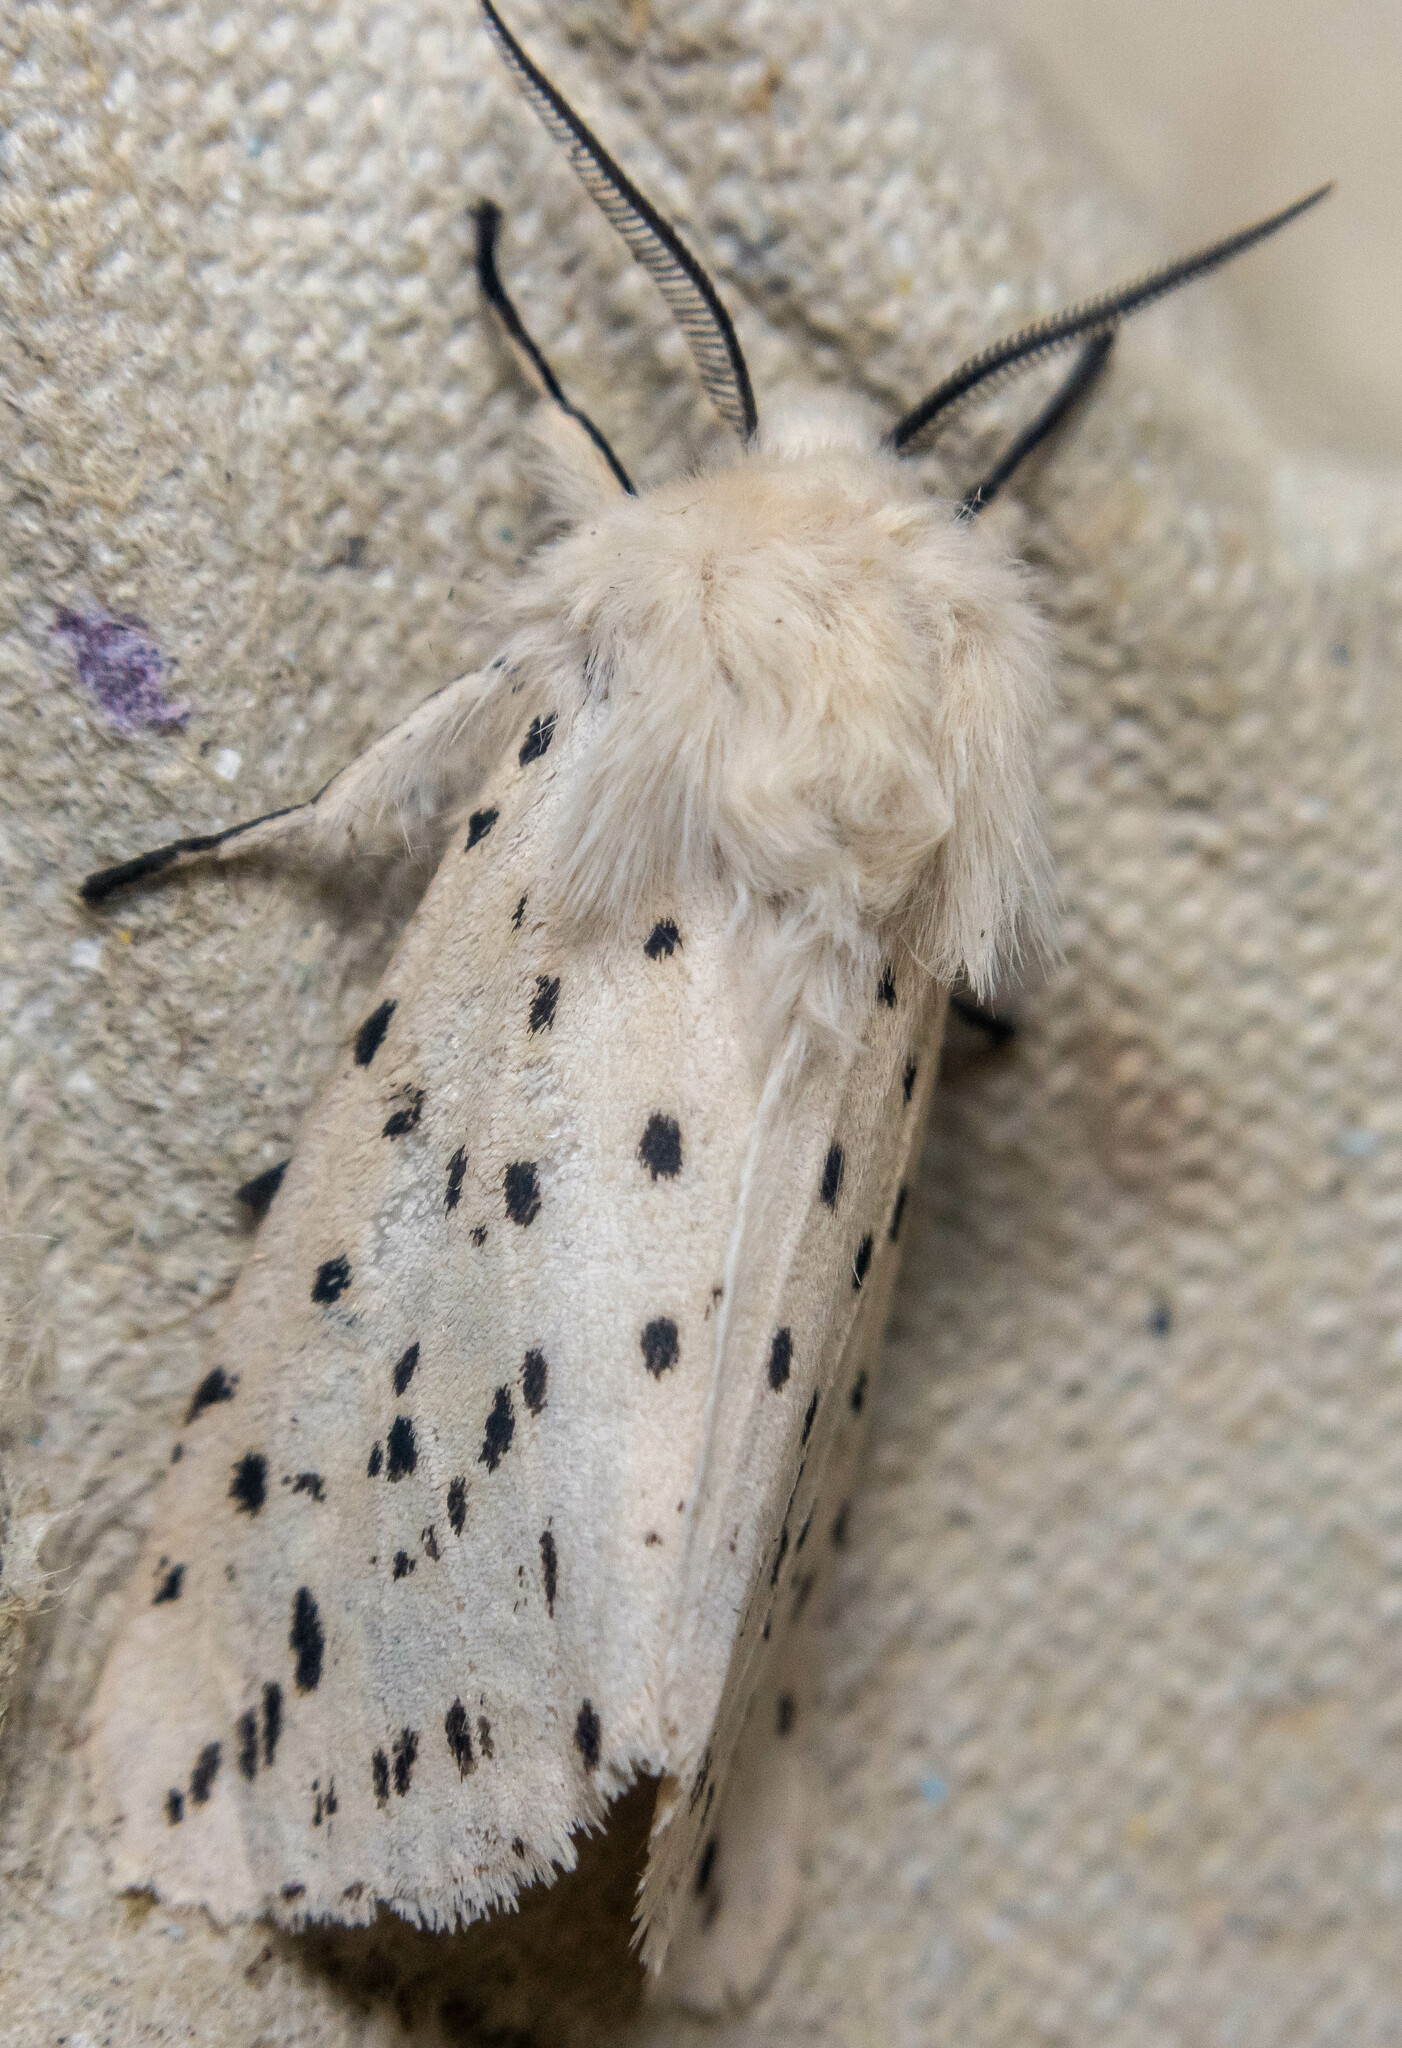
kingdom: Animalia
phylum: Arthropoda
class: Insecta
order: Lepidoptera
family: Erebidae
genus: Spilosoma
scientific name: Spilosoma lubricipeda
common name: White ermine
